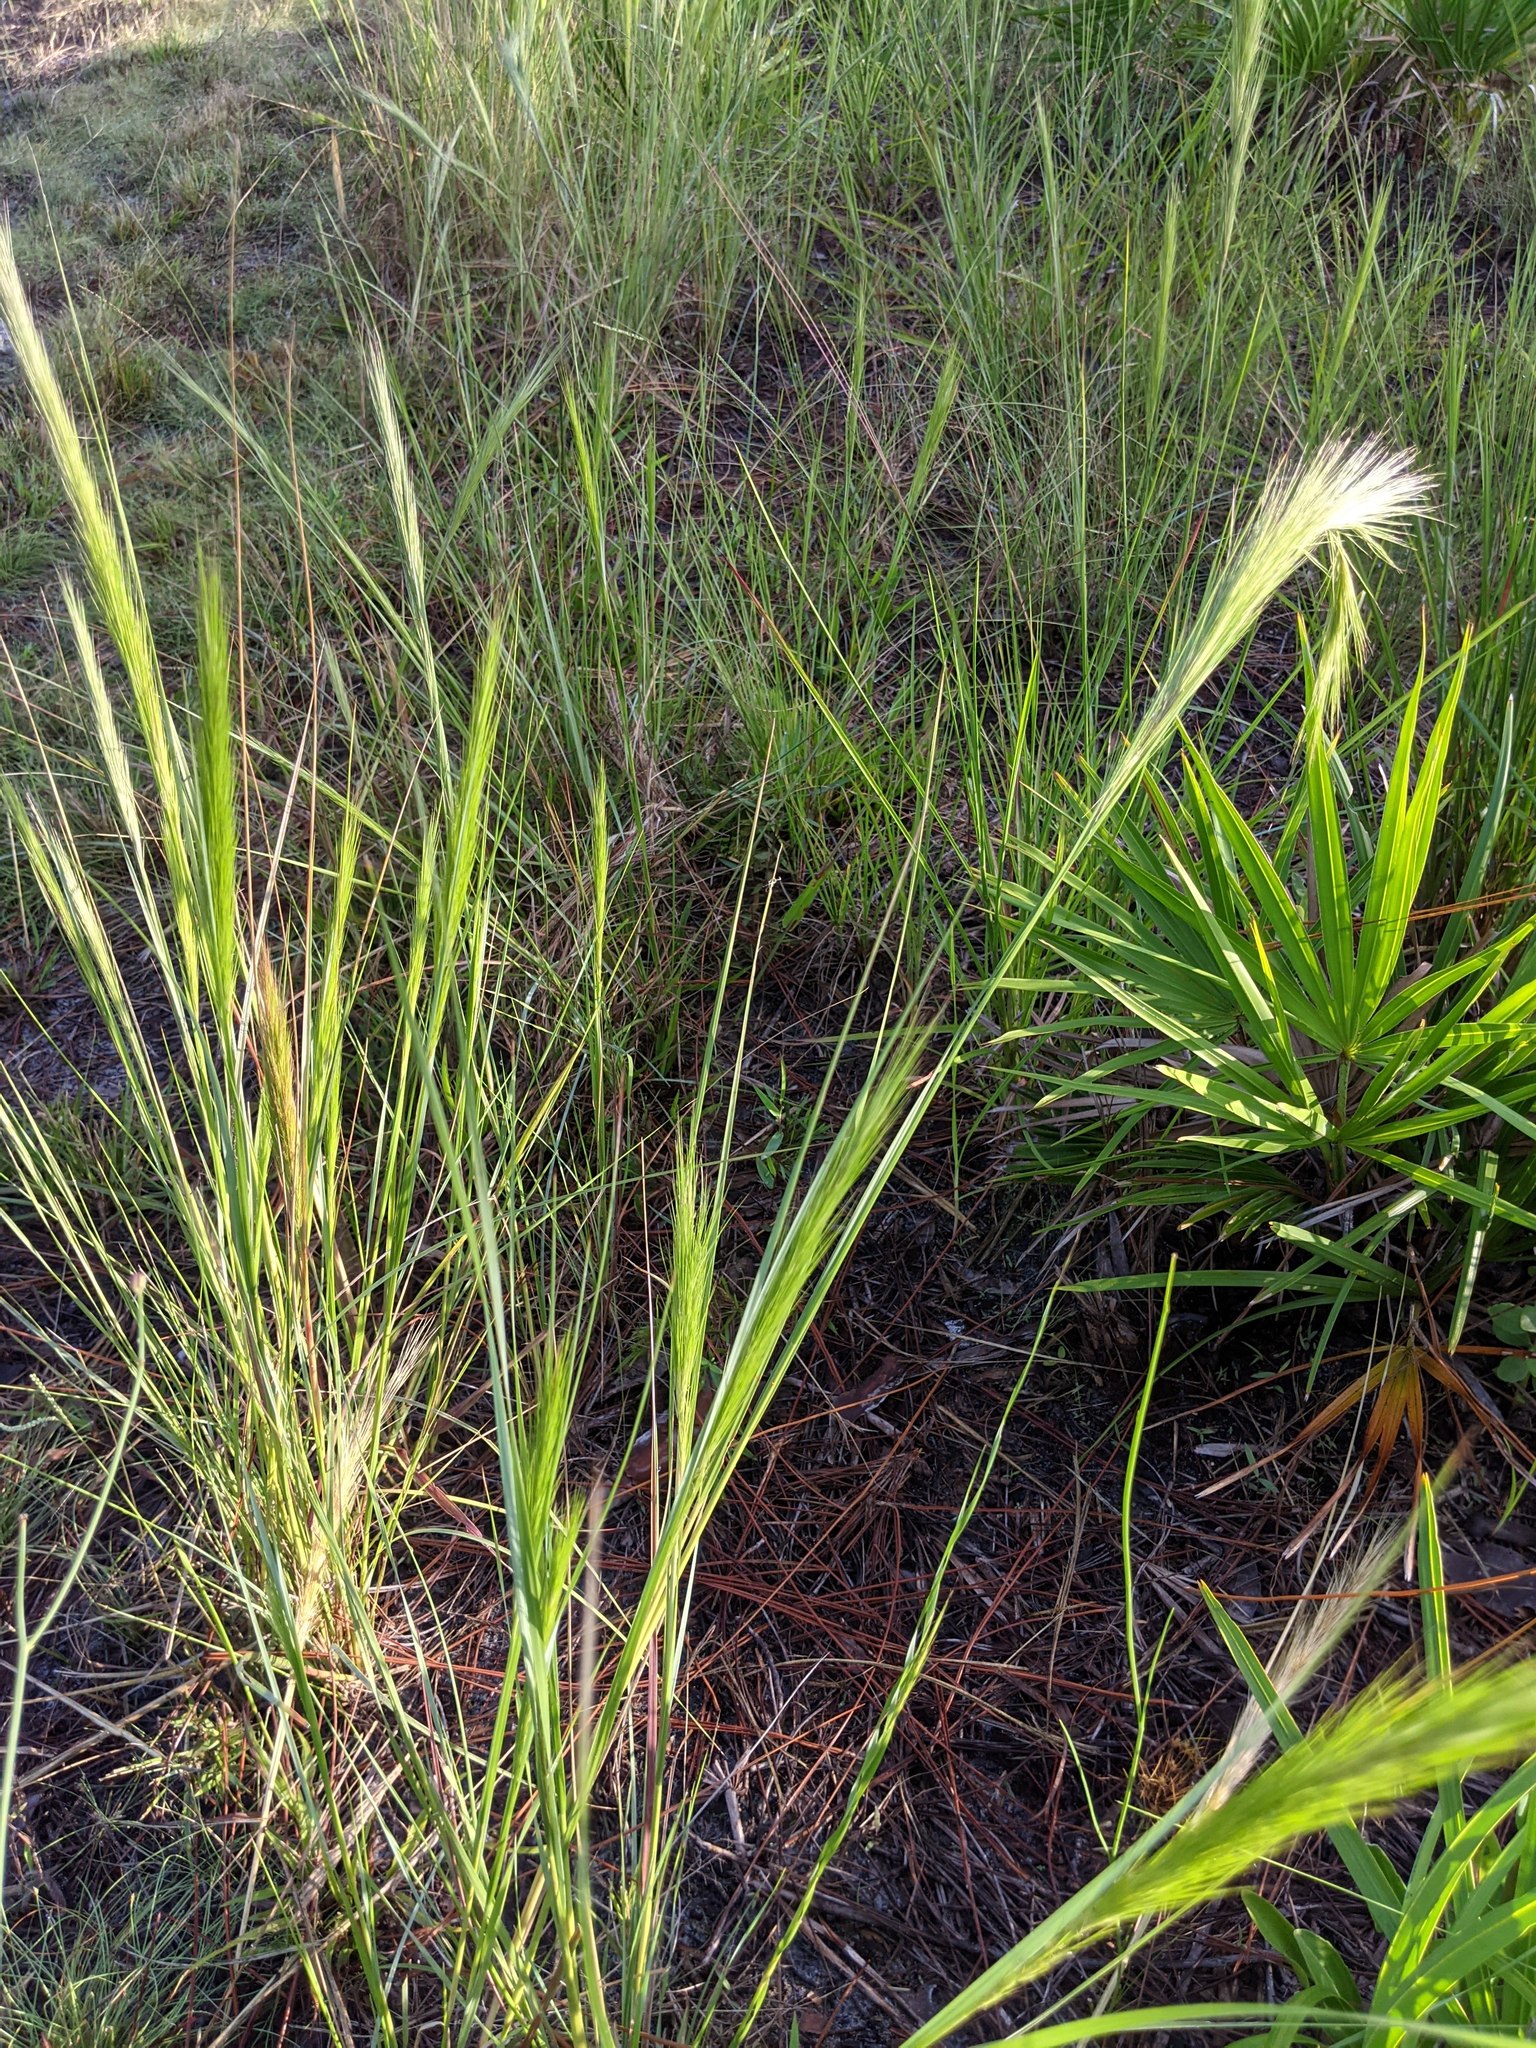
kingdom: Plantae
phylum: Tracheophyta
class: Liliopsida
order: Poales
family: Poaceae
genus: Aristida
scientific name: Aristida spiciformis
